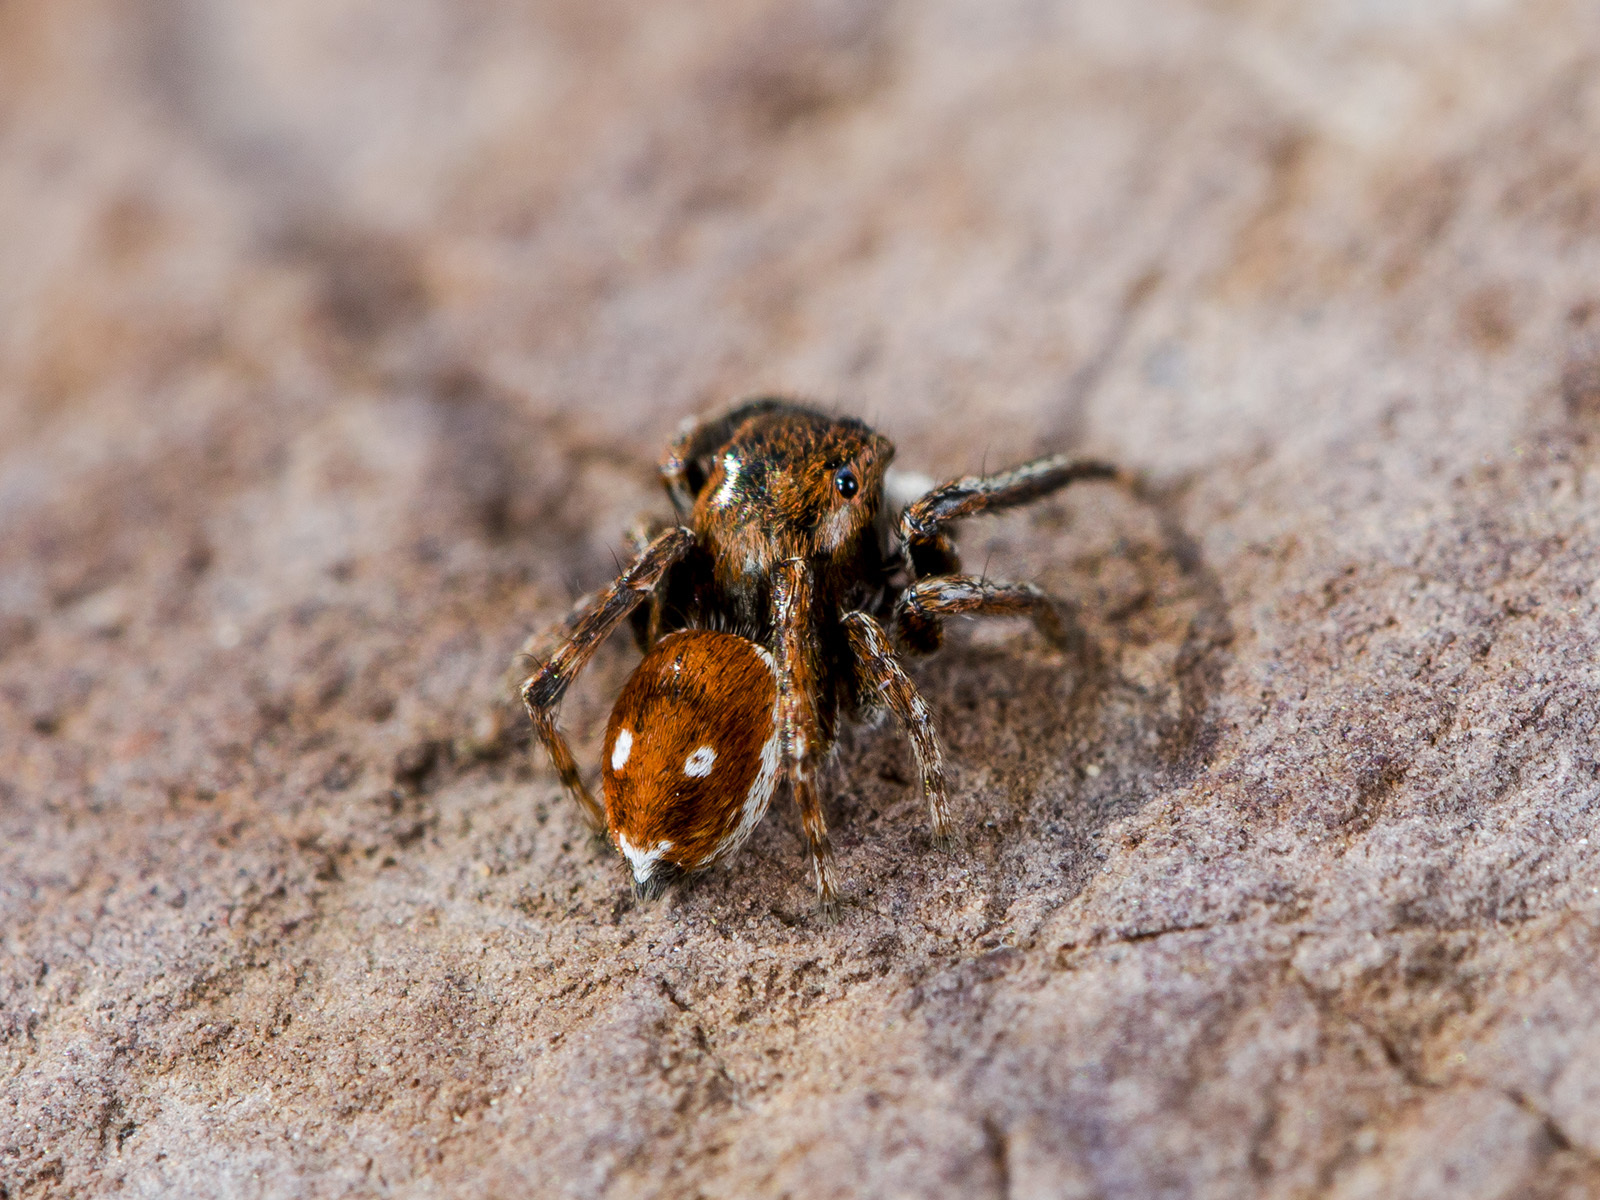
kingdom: Animalia
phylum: Arthropoda
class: Arachnida
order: Araneae
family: Salticidae
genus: Attulus
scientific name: Attulus mirandus
